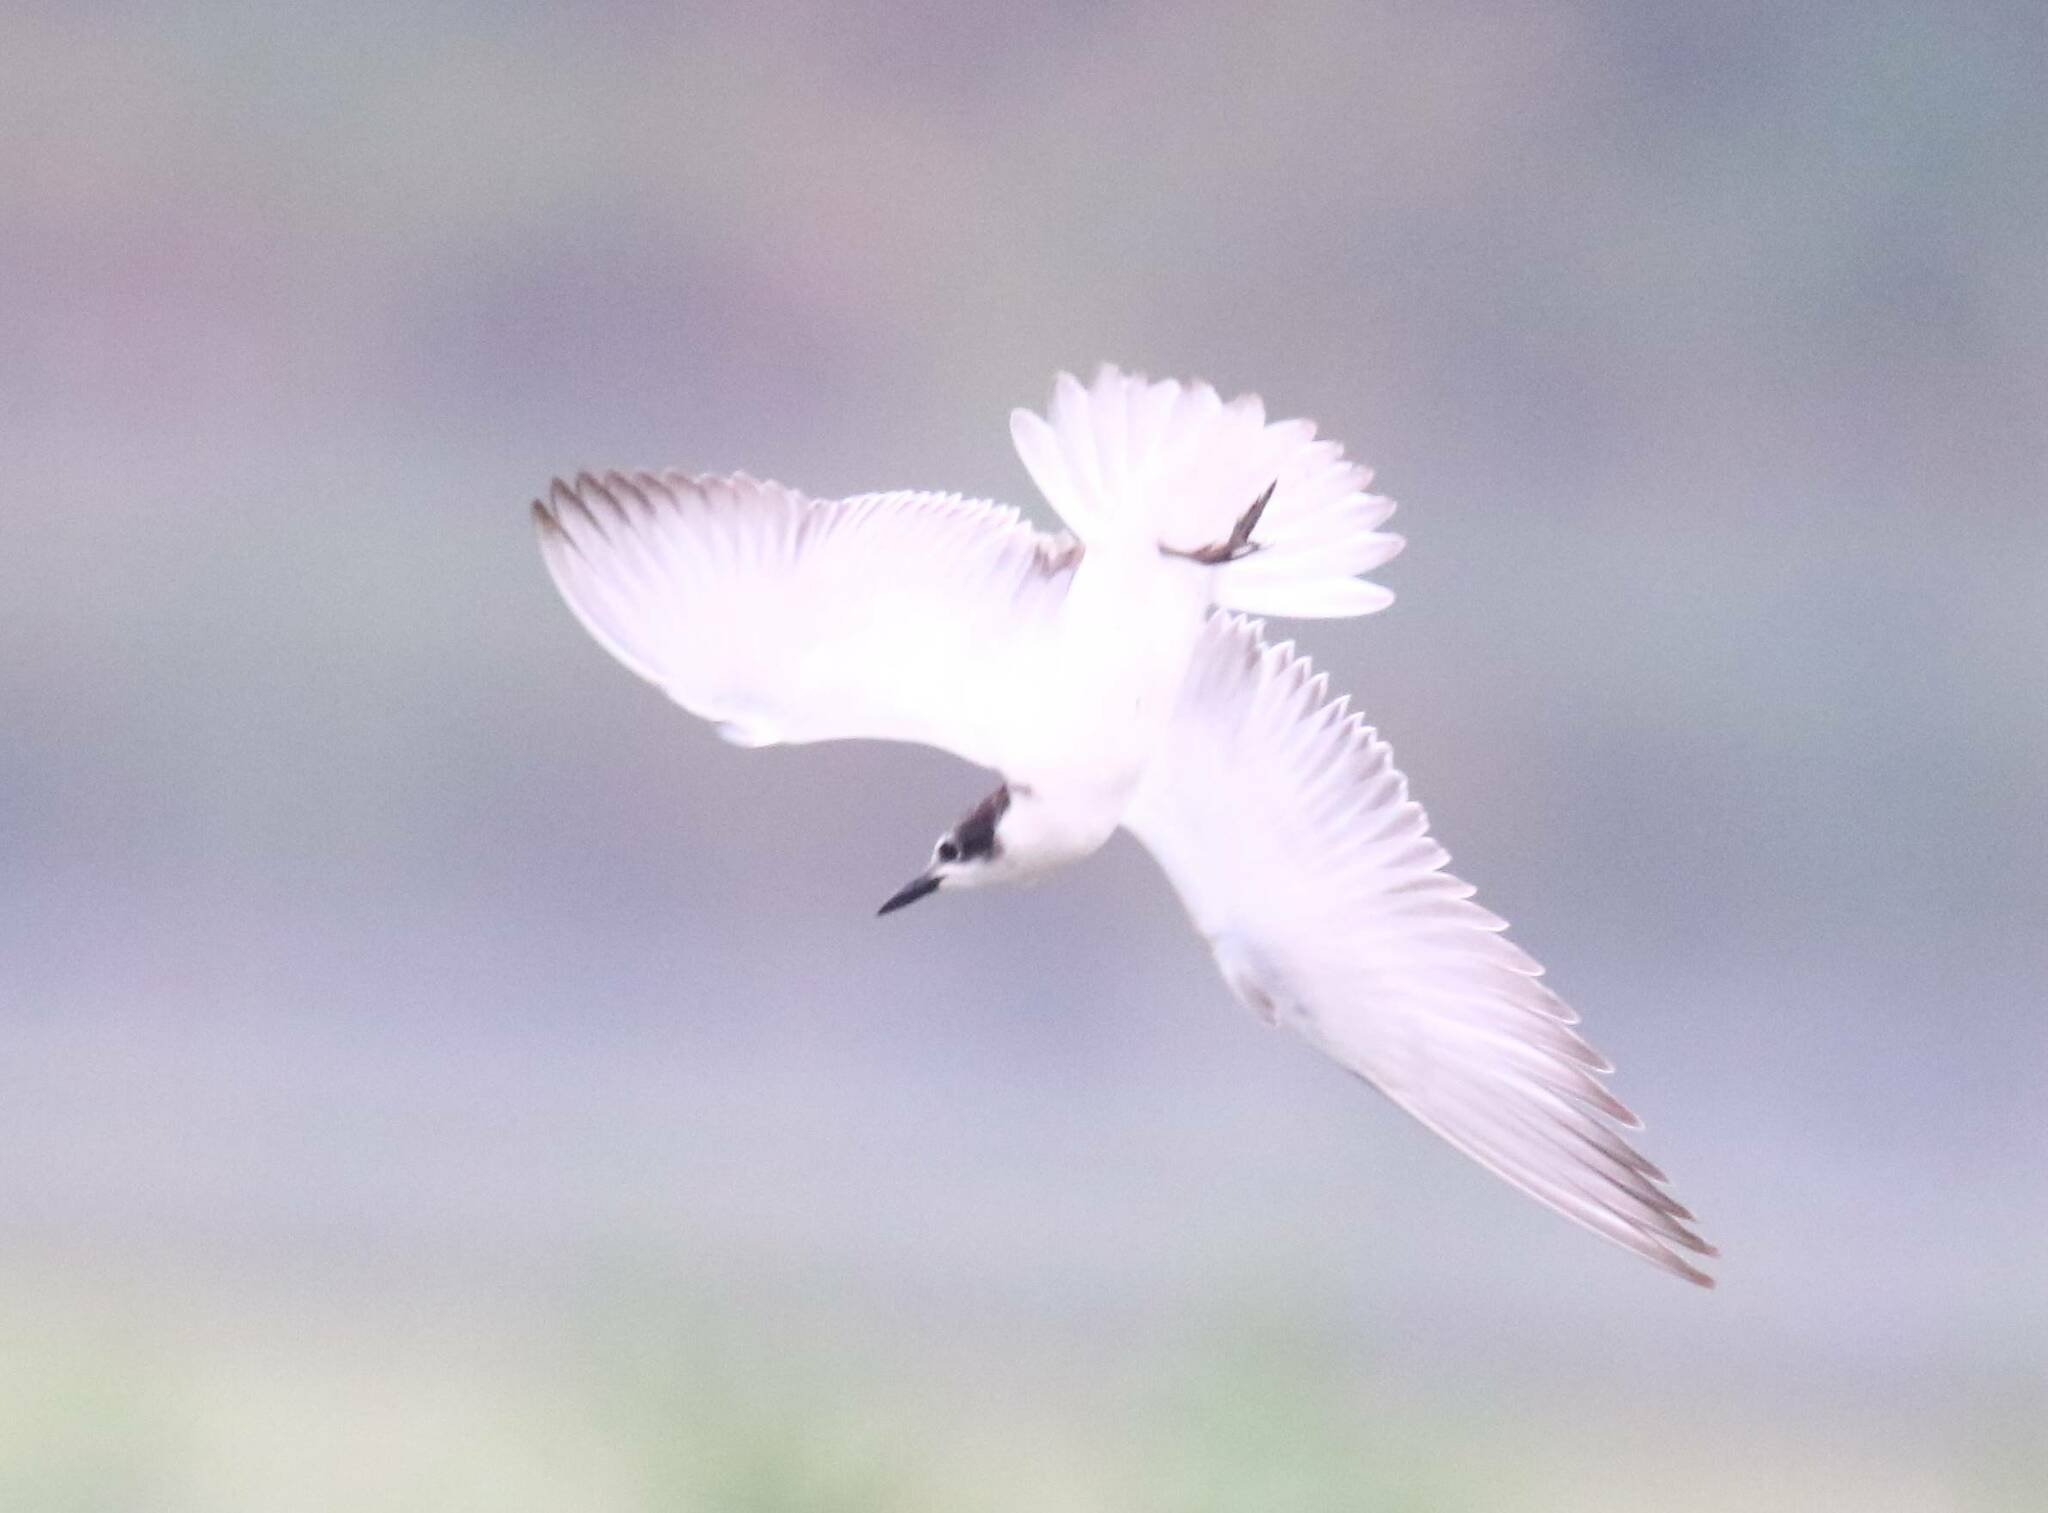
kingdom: Animalia
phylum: Chordata
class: Aves
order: Charadriiformes
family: Laridae
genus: Chlidonias
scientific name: Chlidonias hybrida
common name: Whiskered tern
